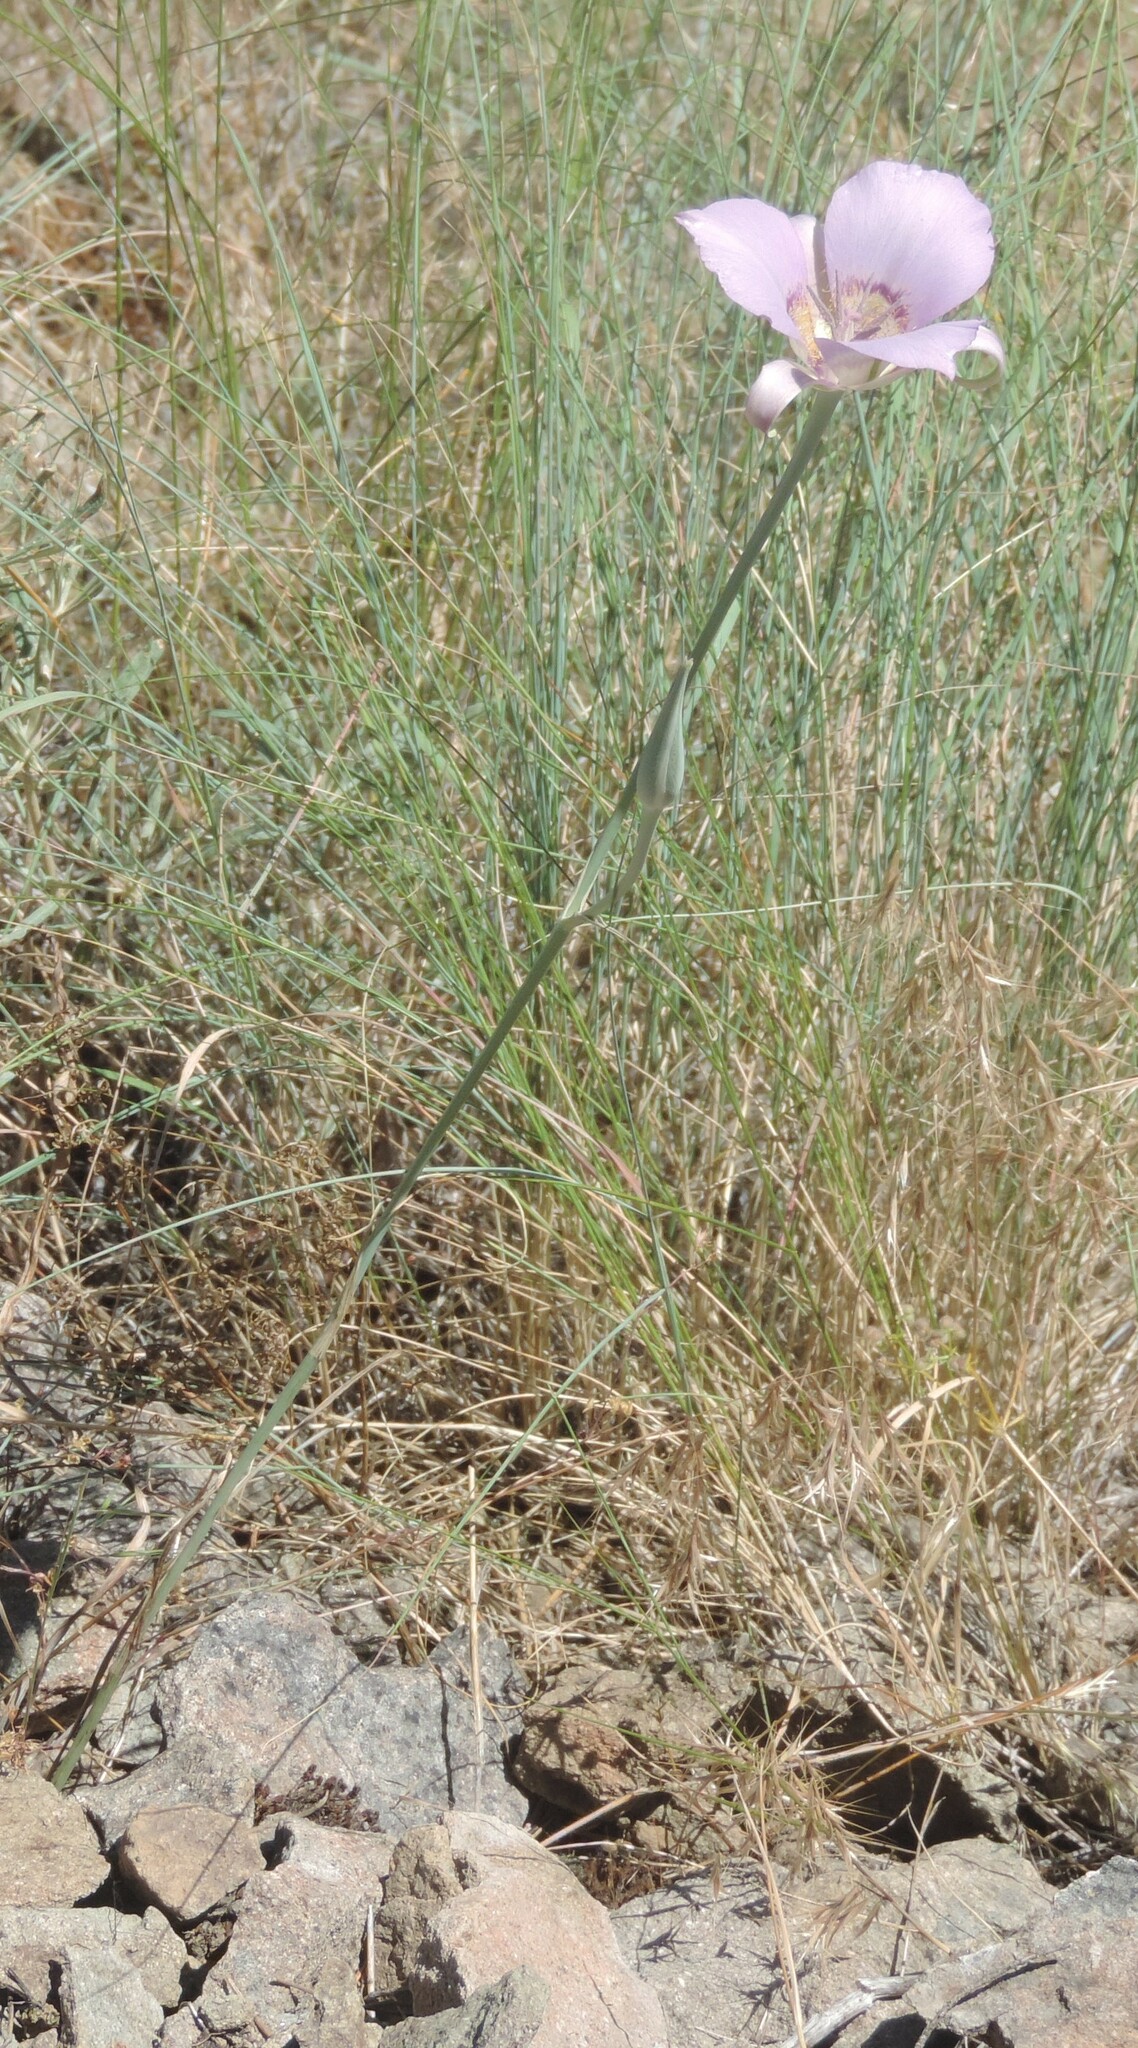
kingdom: Plantae
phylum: Tracheophyta
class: Liliopsida
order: Liliales
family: Liliaceae
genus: Calochortus
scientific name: Calochortus macrocarpus
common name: Green-band mariposa lily
